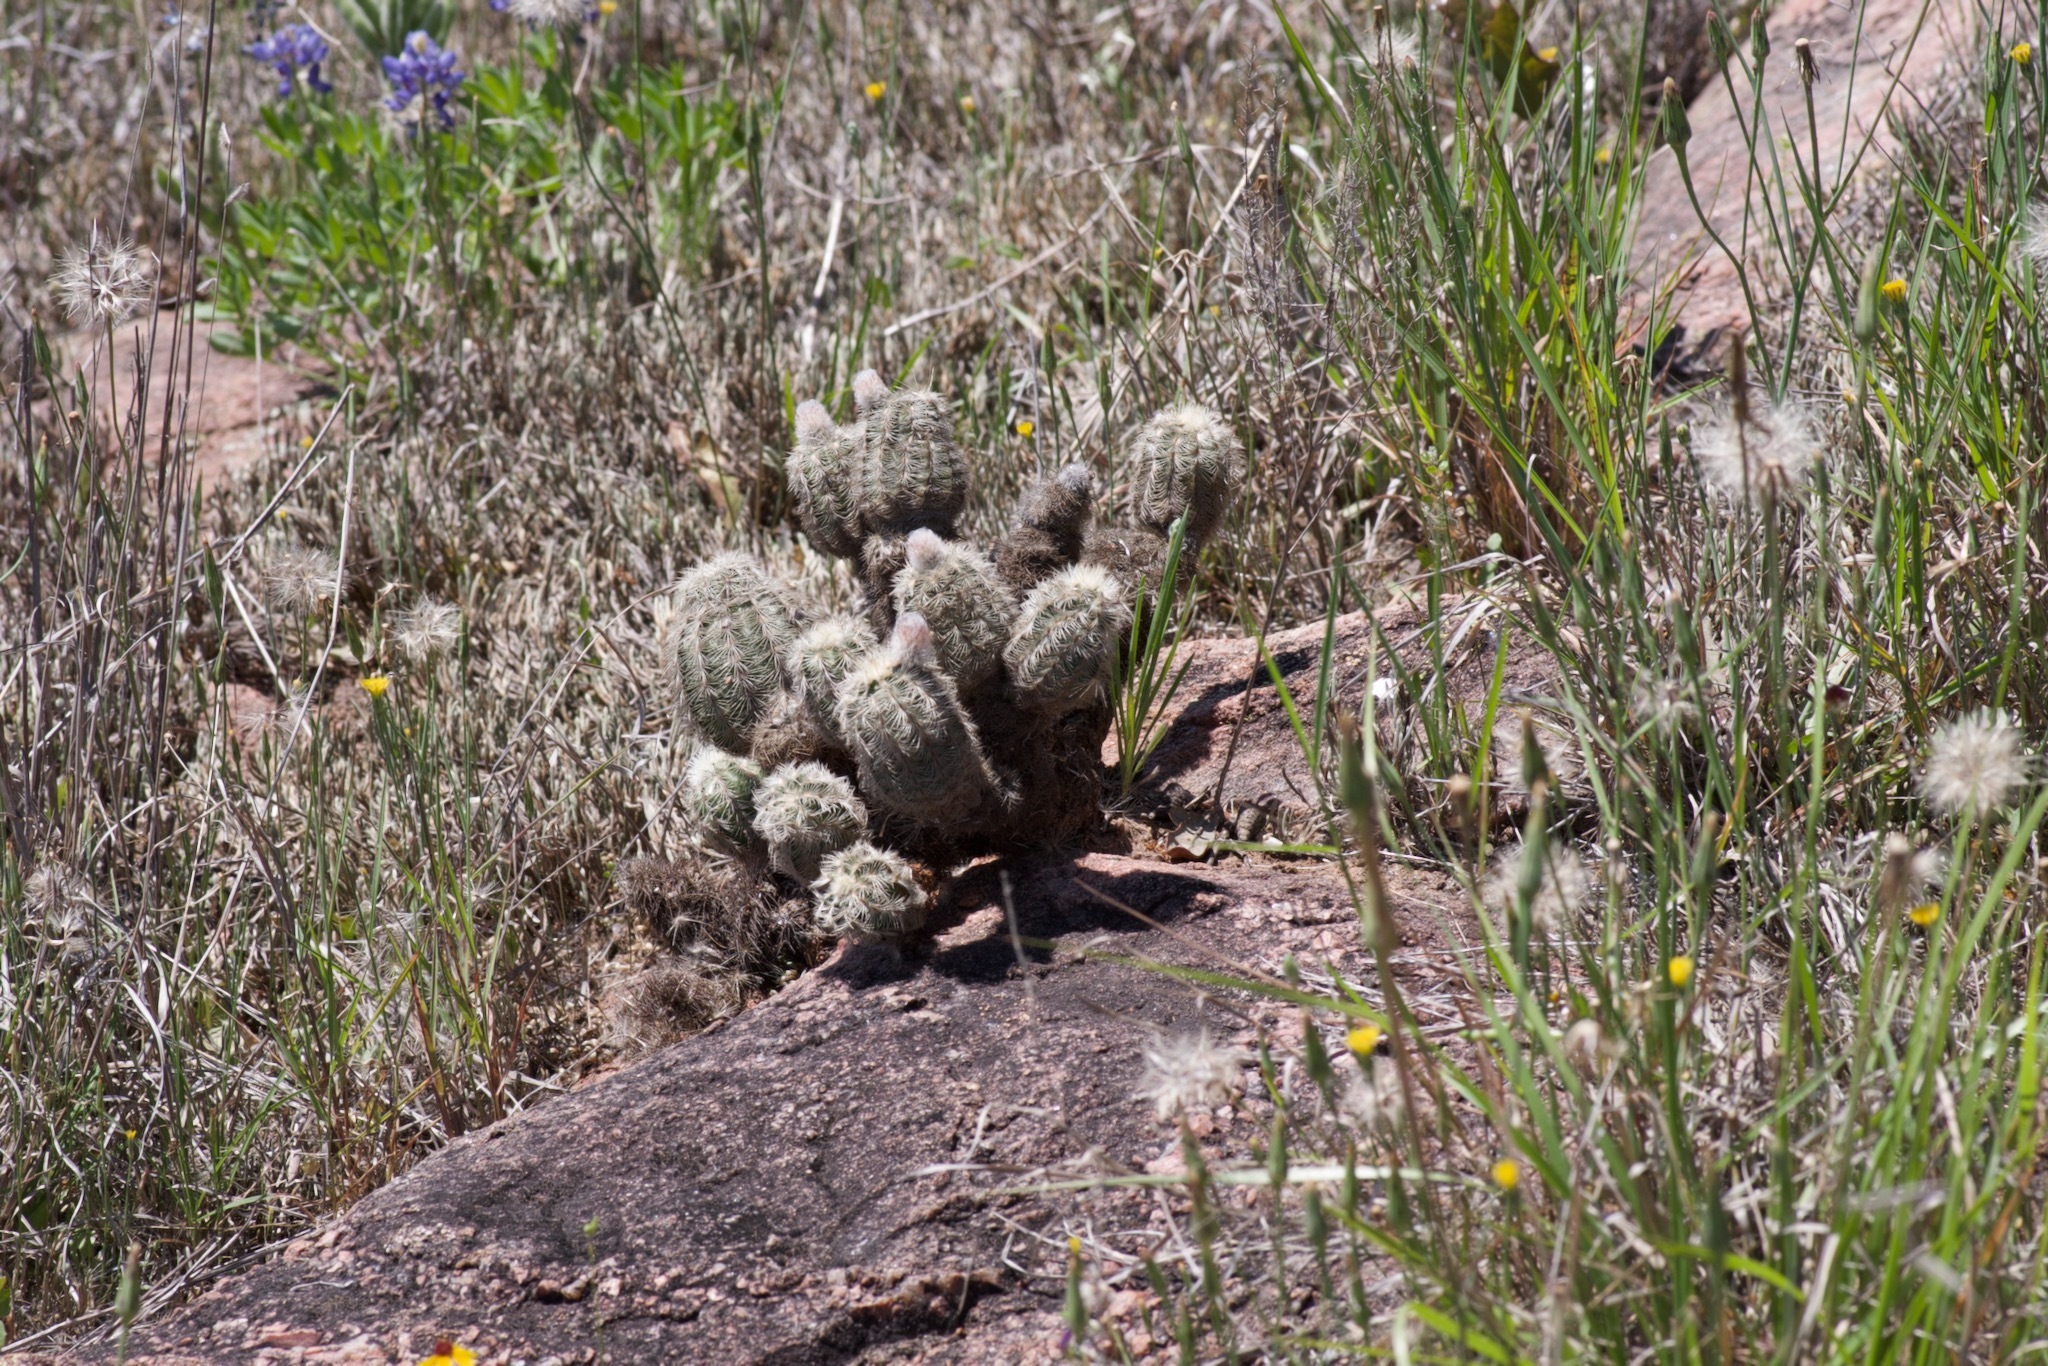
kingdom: Plantae
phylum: Tracheophyta
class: Magnoliopsida
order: Caryophyllales
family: Cactaceae
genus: Echinocereus
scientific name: Echinocereus reichenbachii
